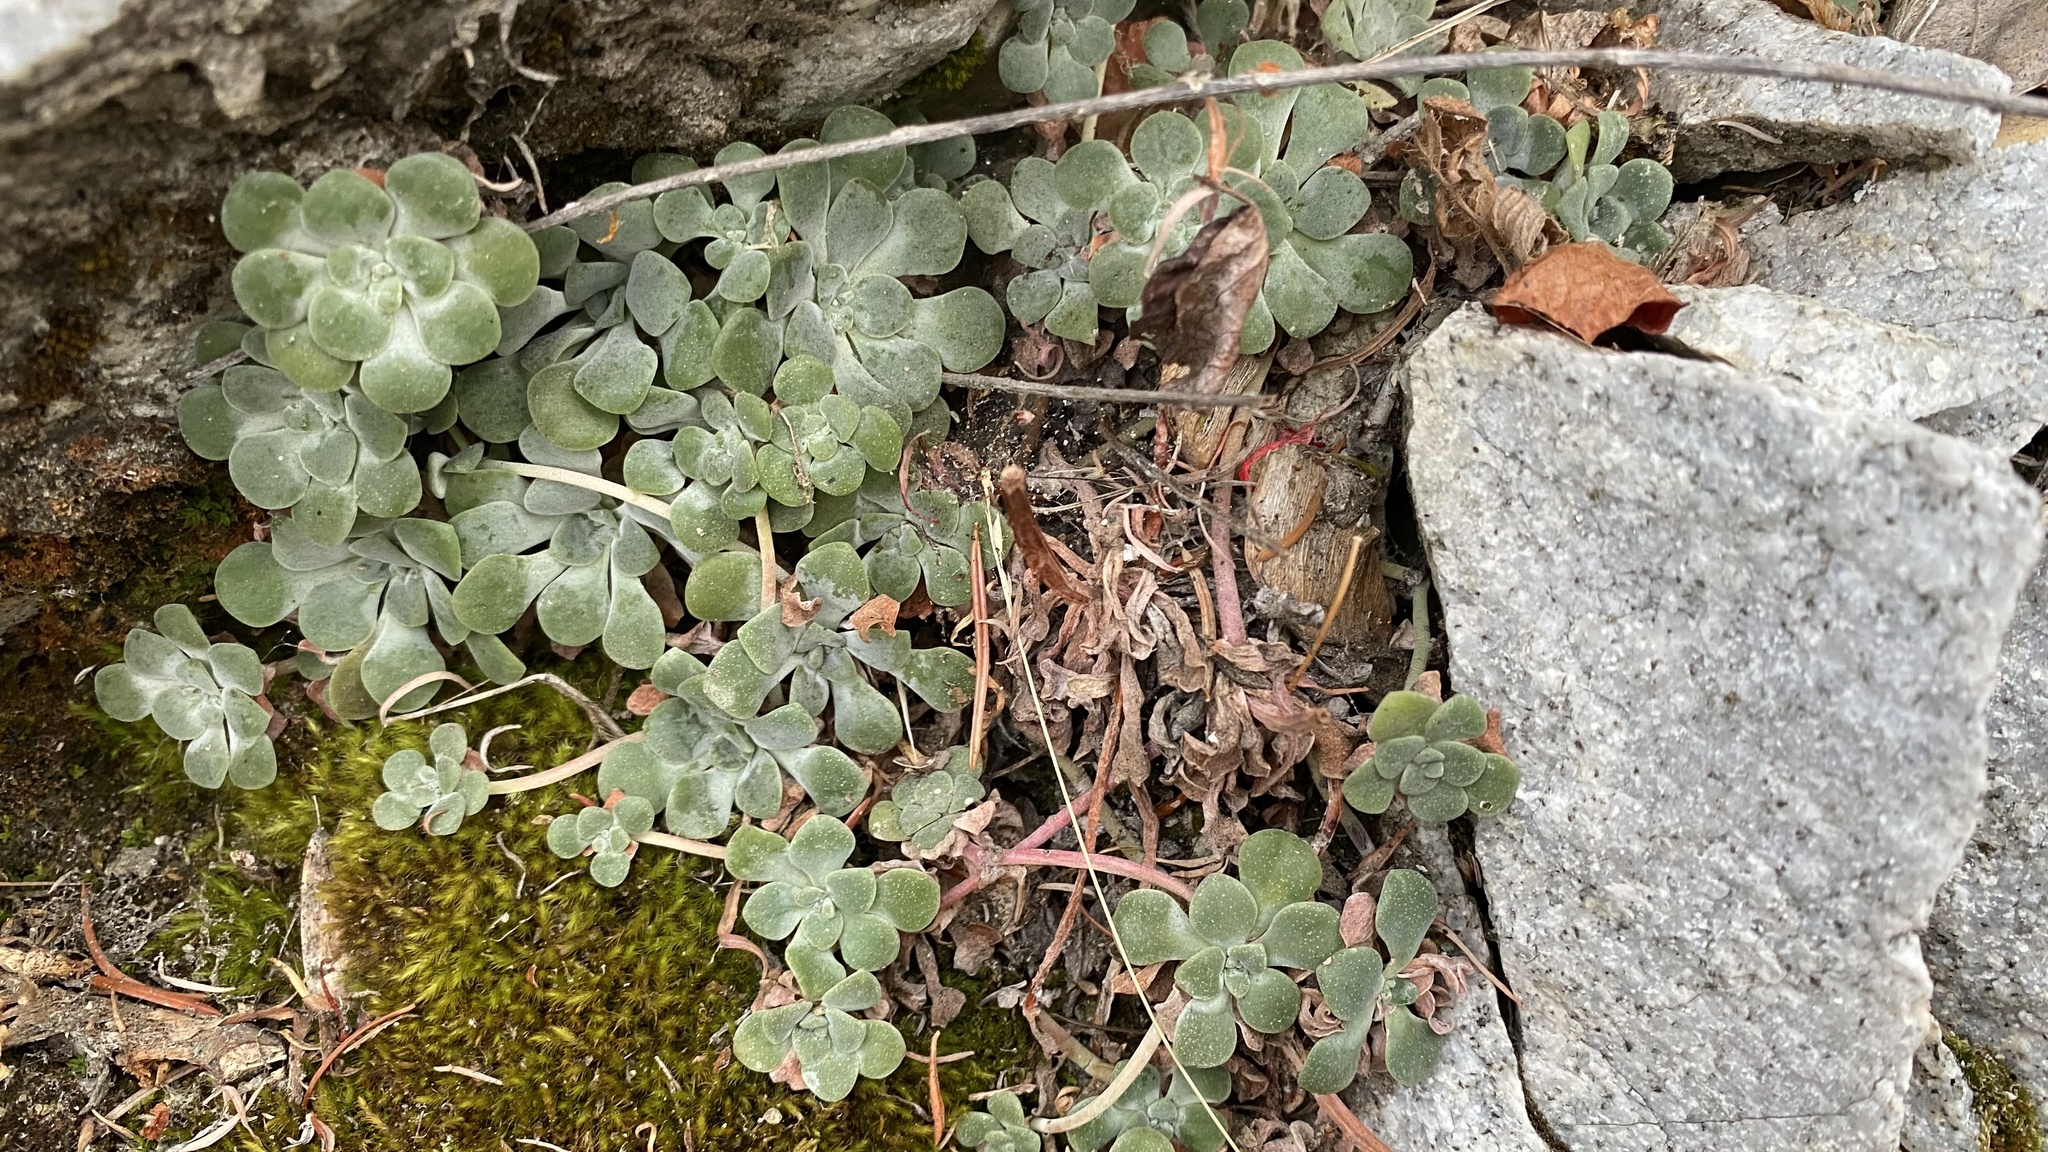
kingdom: Plantae
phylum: Tracheophyta
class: Magnoliopsida
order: Saxifragales
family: Crassulaceae
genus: Sedum
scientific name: Sedum spathulifolium
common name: Colorado stonecrop
